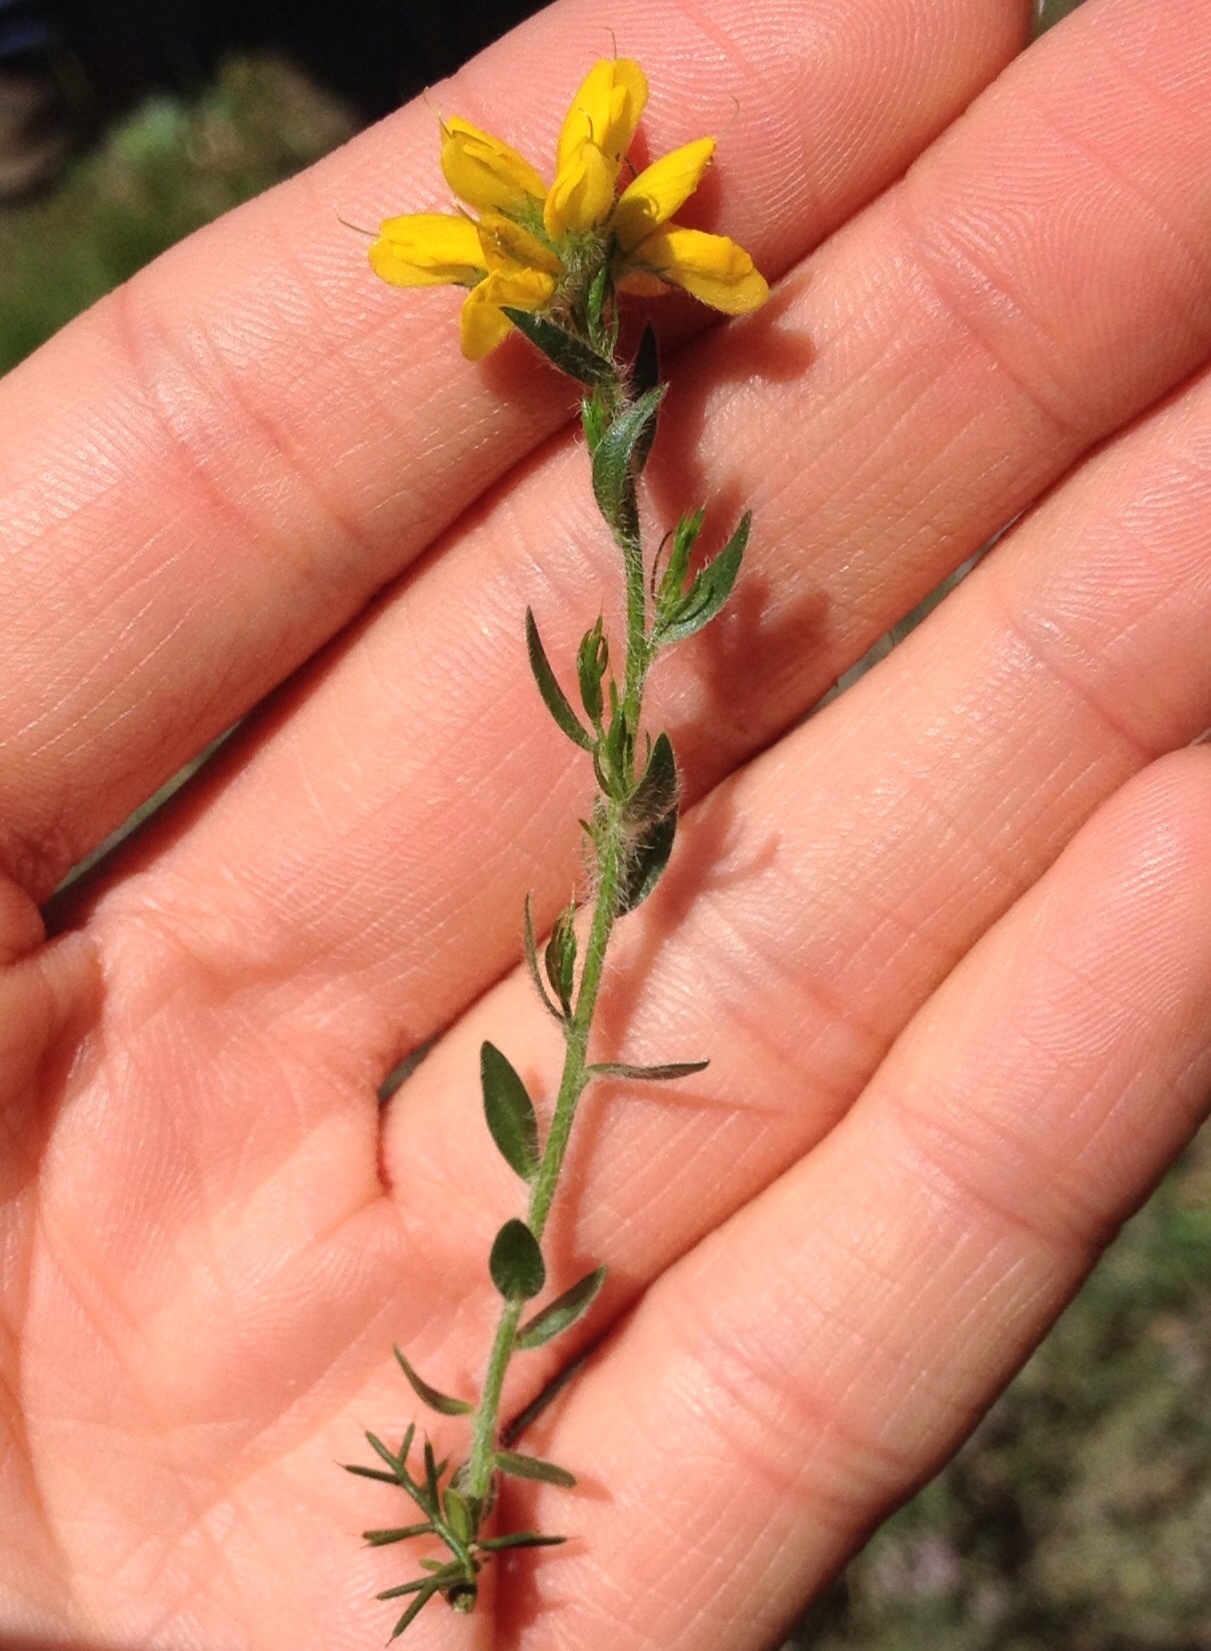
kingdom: Plantae
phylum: Tracheophyta
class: Magnoliopsida
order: Fabales
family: Fabaceae
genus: Genista
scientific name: Genista hispanica
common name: Spanish gorse
